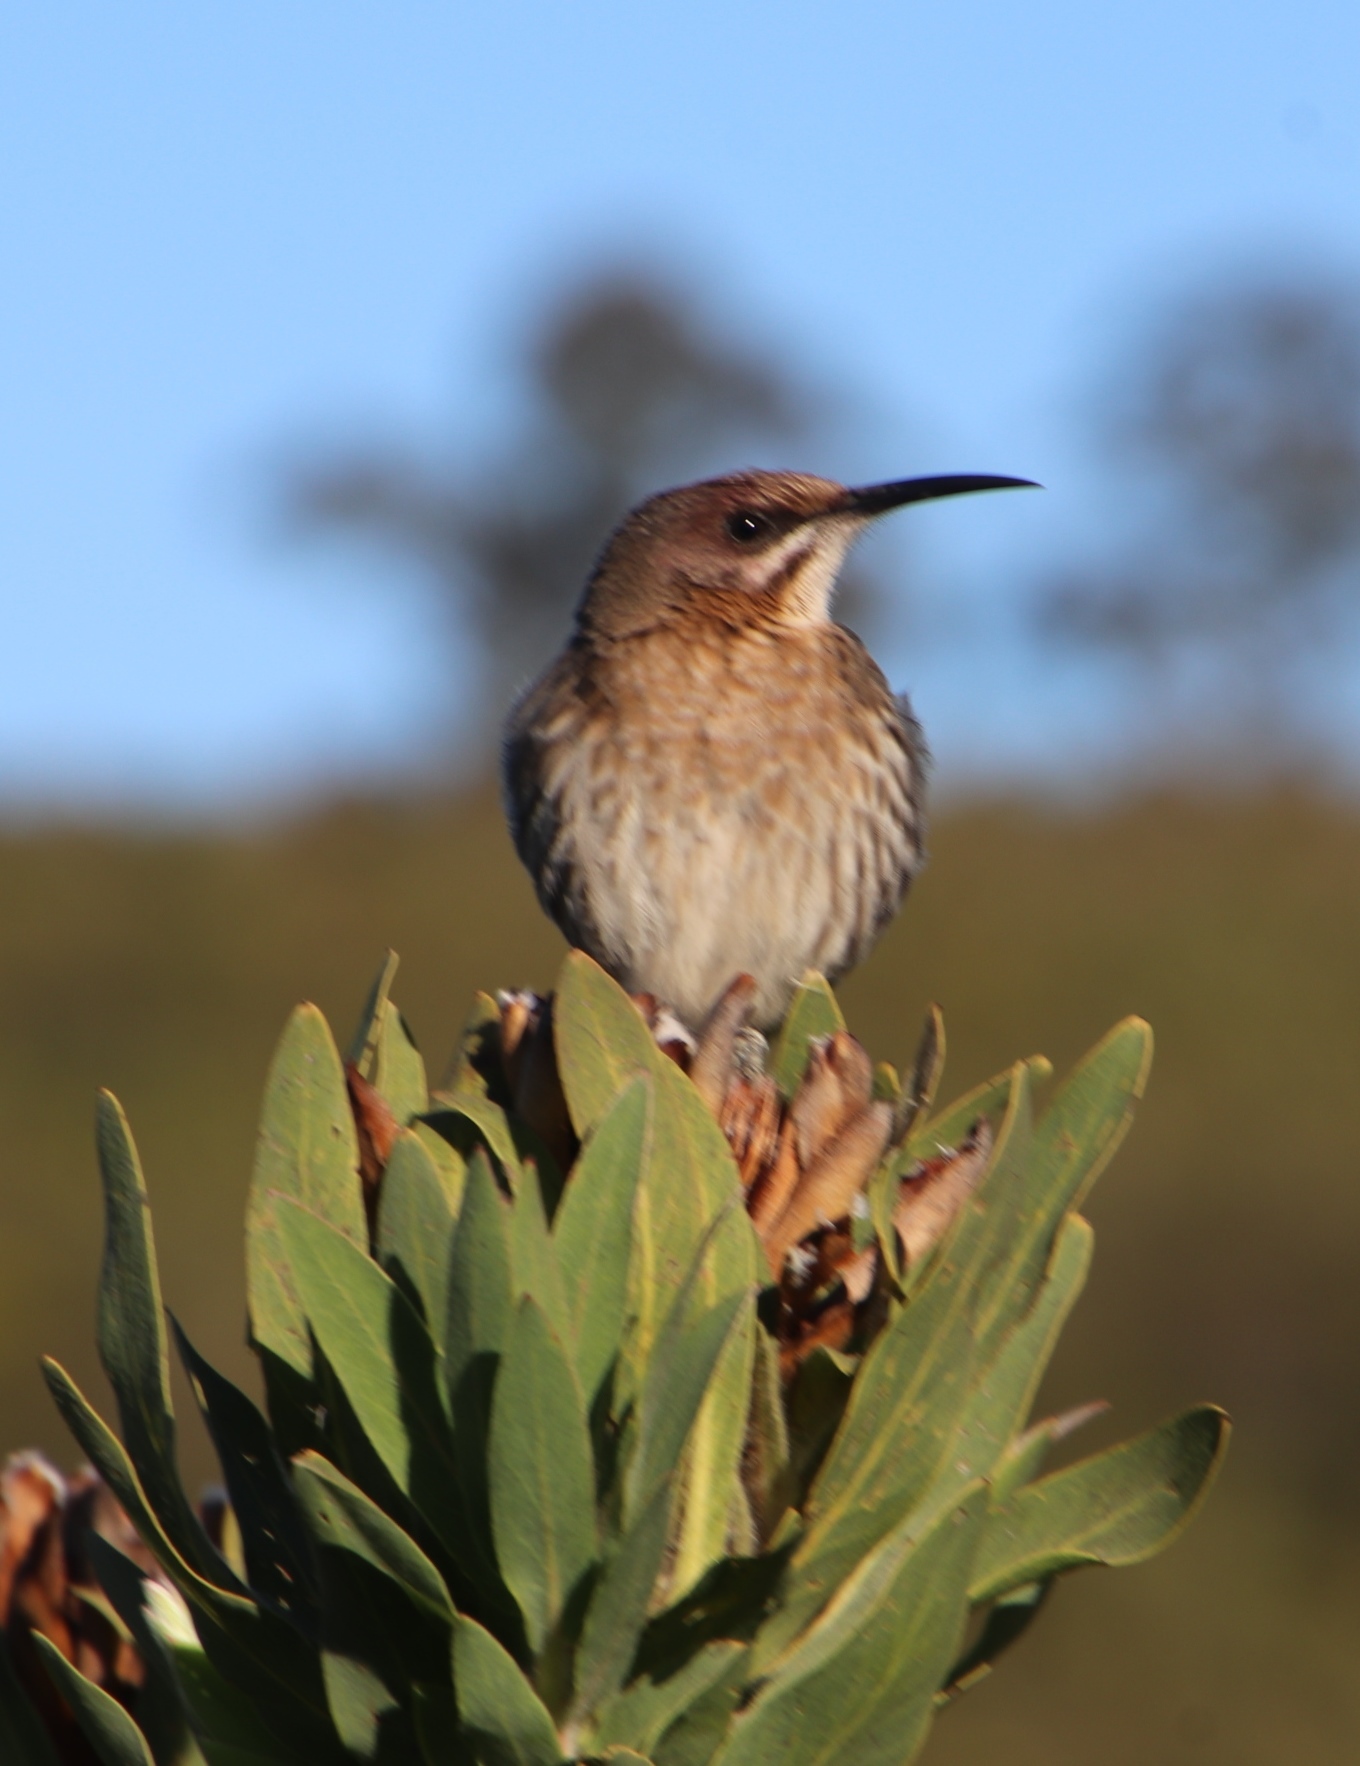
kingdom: Animalia
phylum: Chordata
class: Aves
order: Passeriformes
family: Promeropidae
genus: Promerops
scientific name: Promerops cafer
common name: Cape sugarbird
